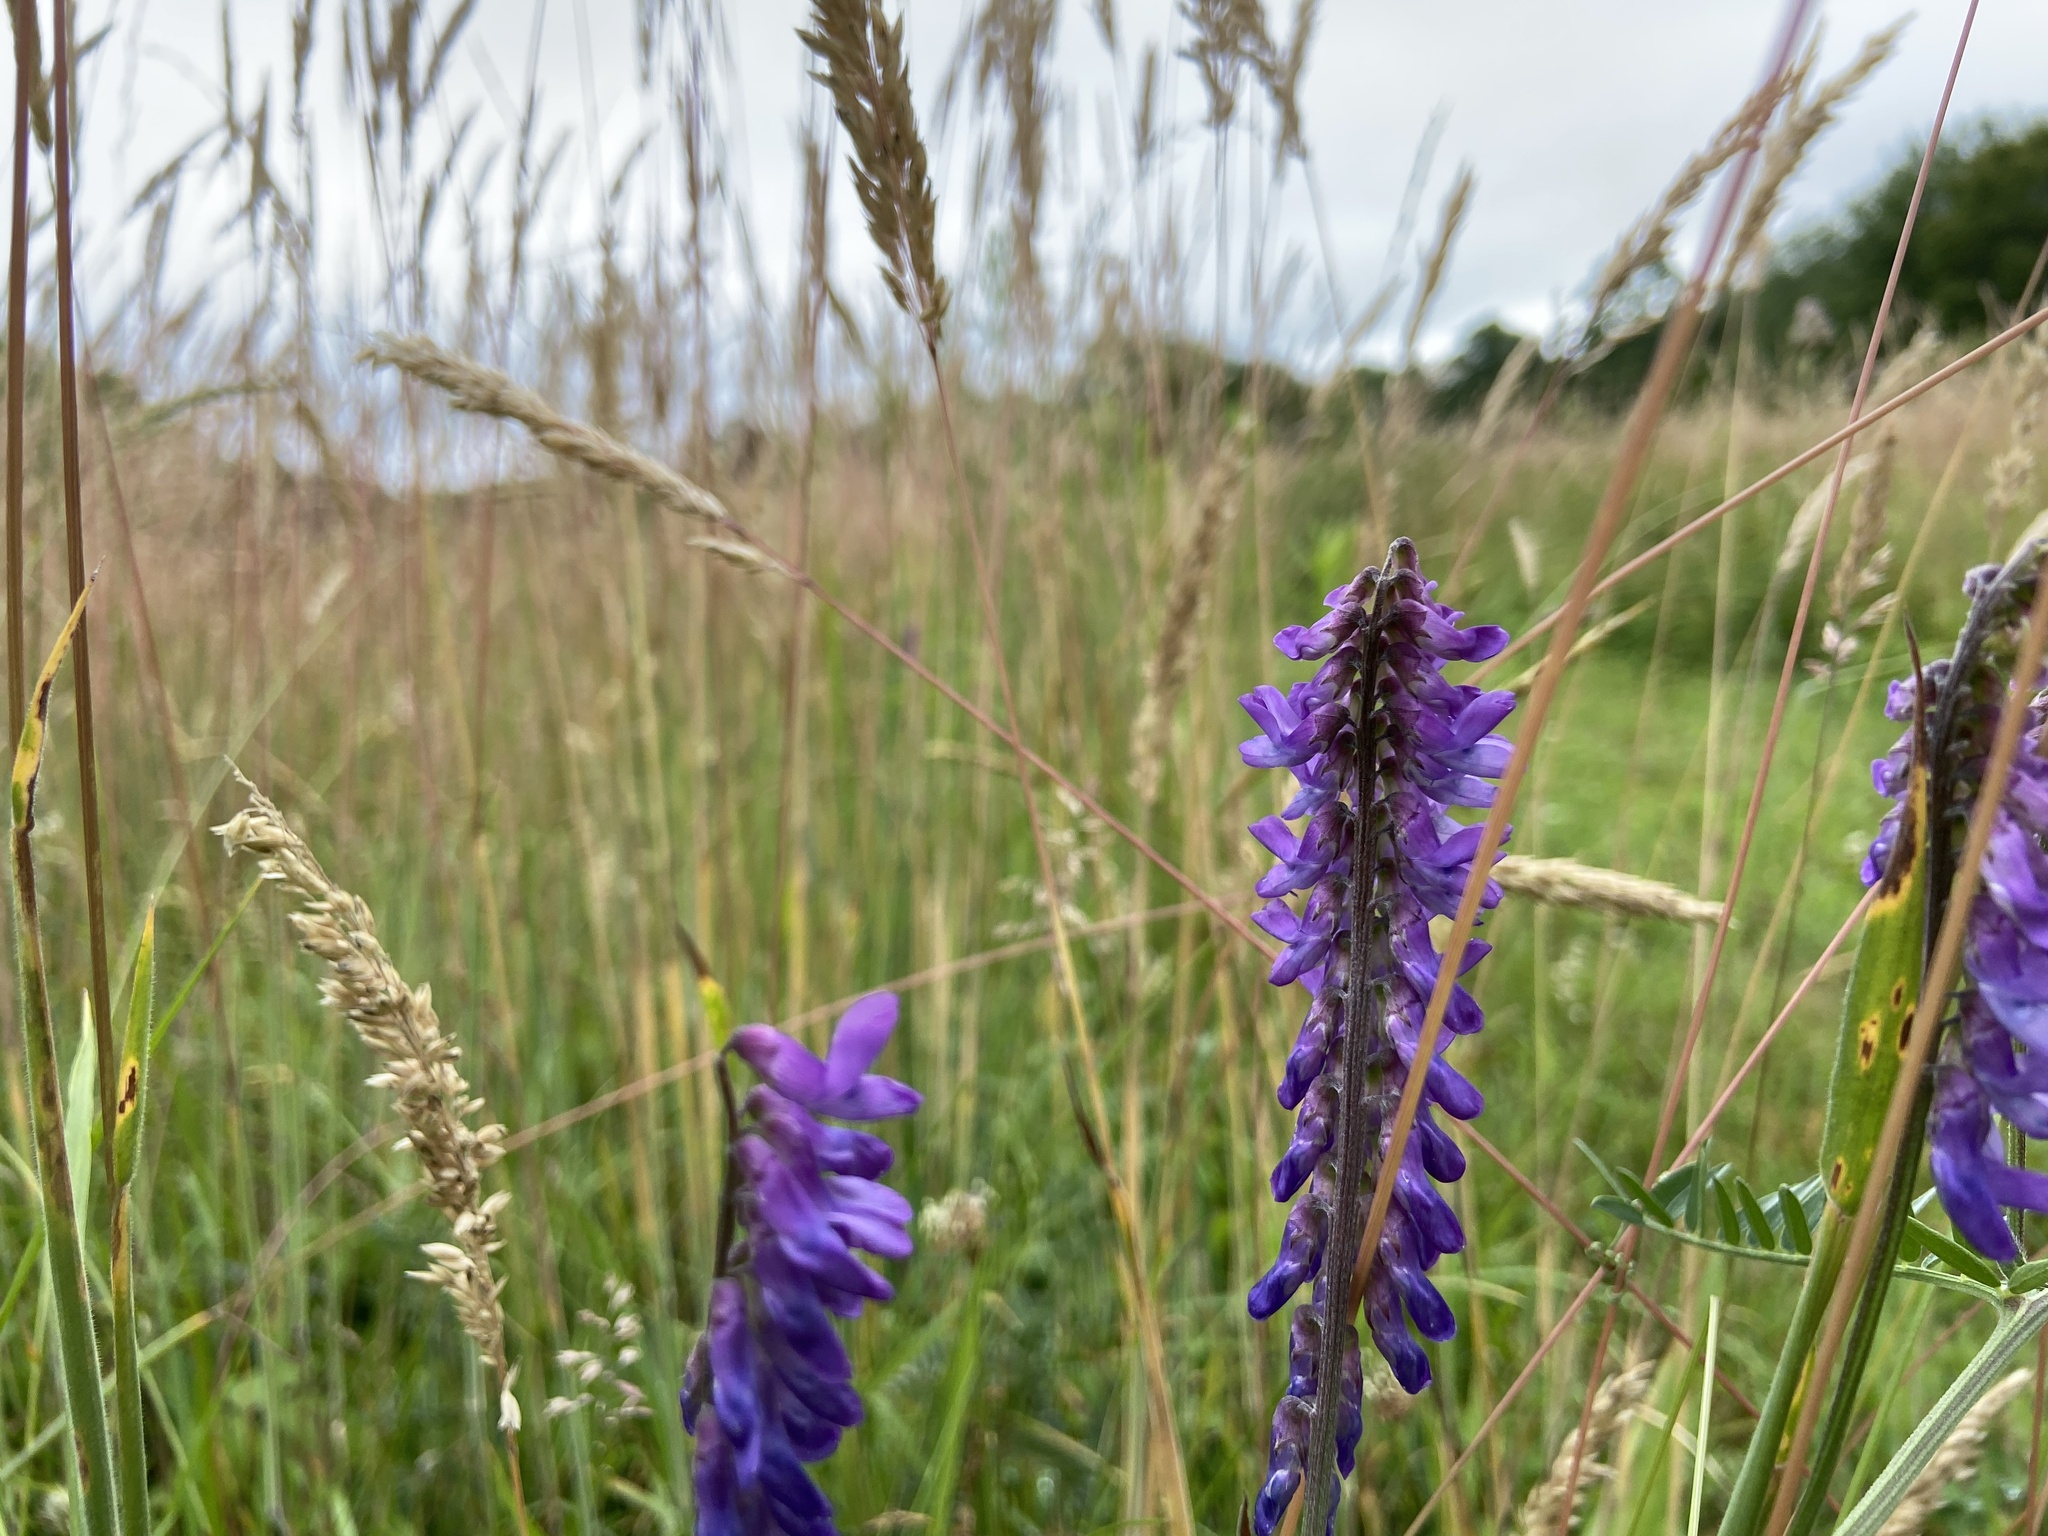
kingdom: Plantae
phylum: Tracheophyta
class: Magnoliopsida
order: Fabales
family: Fabaceae
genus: Vicia
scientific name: Vicia cracca
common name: Bird vetch
